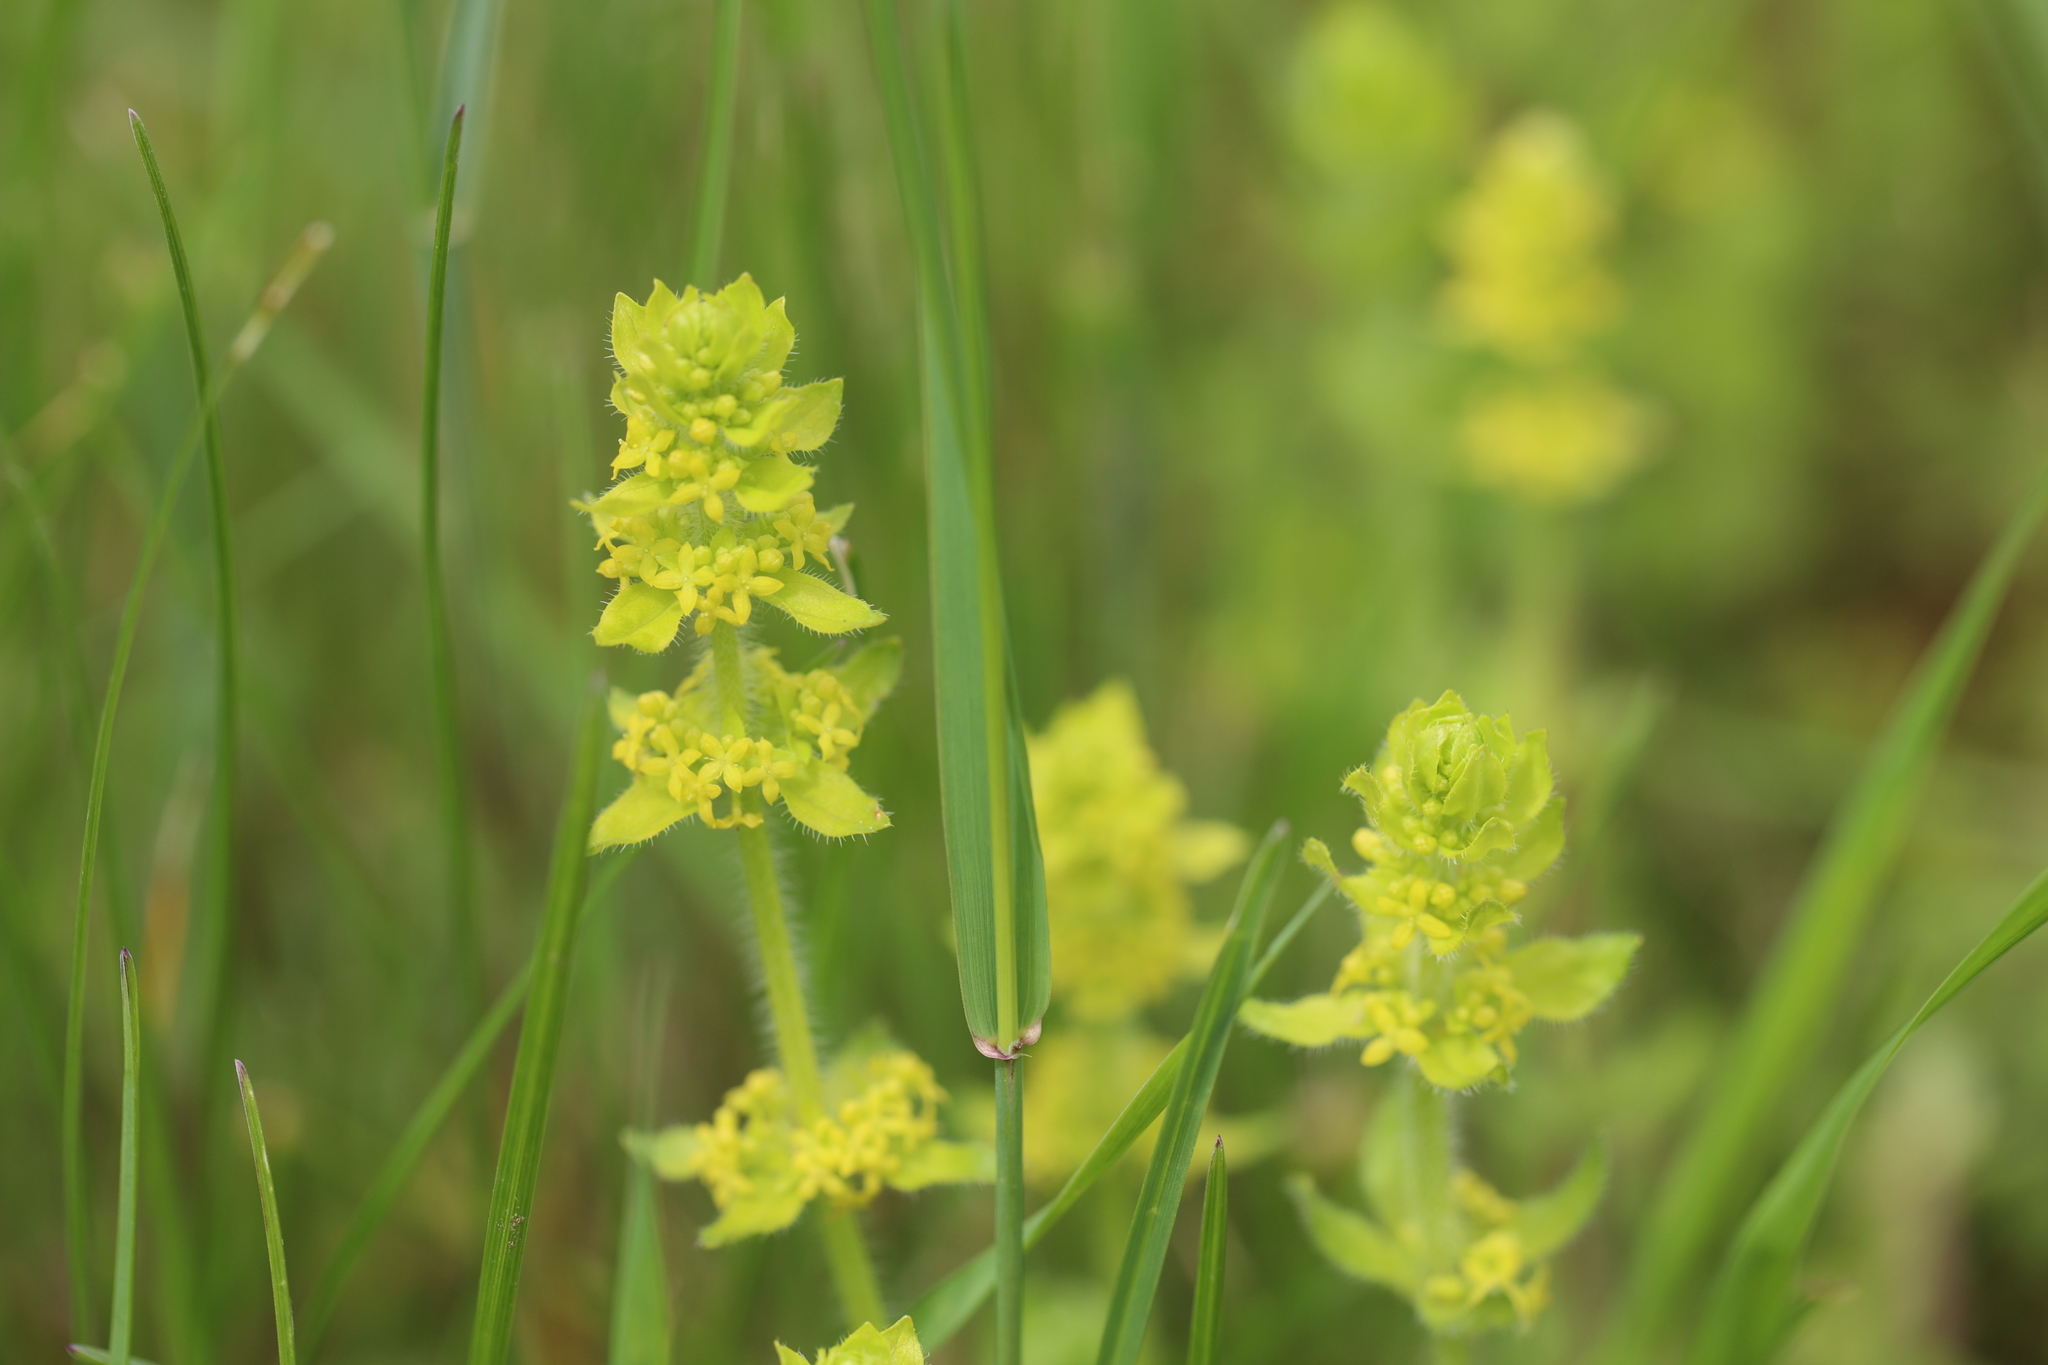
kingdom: Plantae
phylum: Tracheophyta
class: Magnoliopsida
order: Gentianales
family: Rubiaceae
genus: Cruciata
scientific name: Cruciata laevipes
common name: Crosswort
